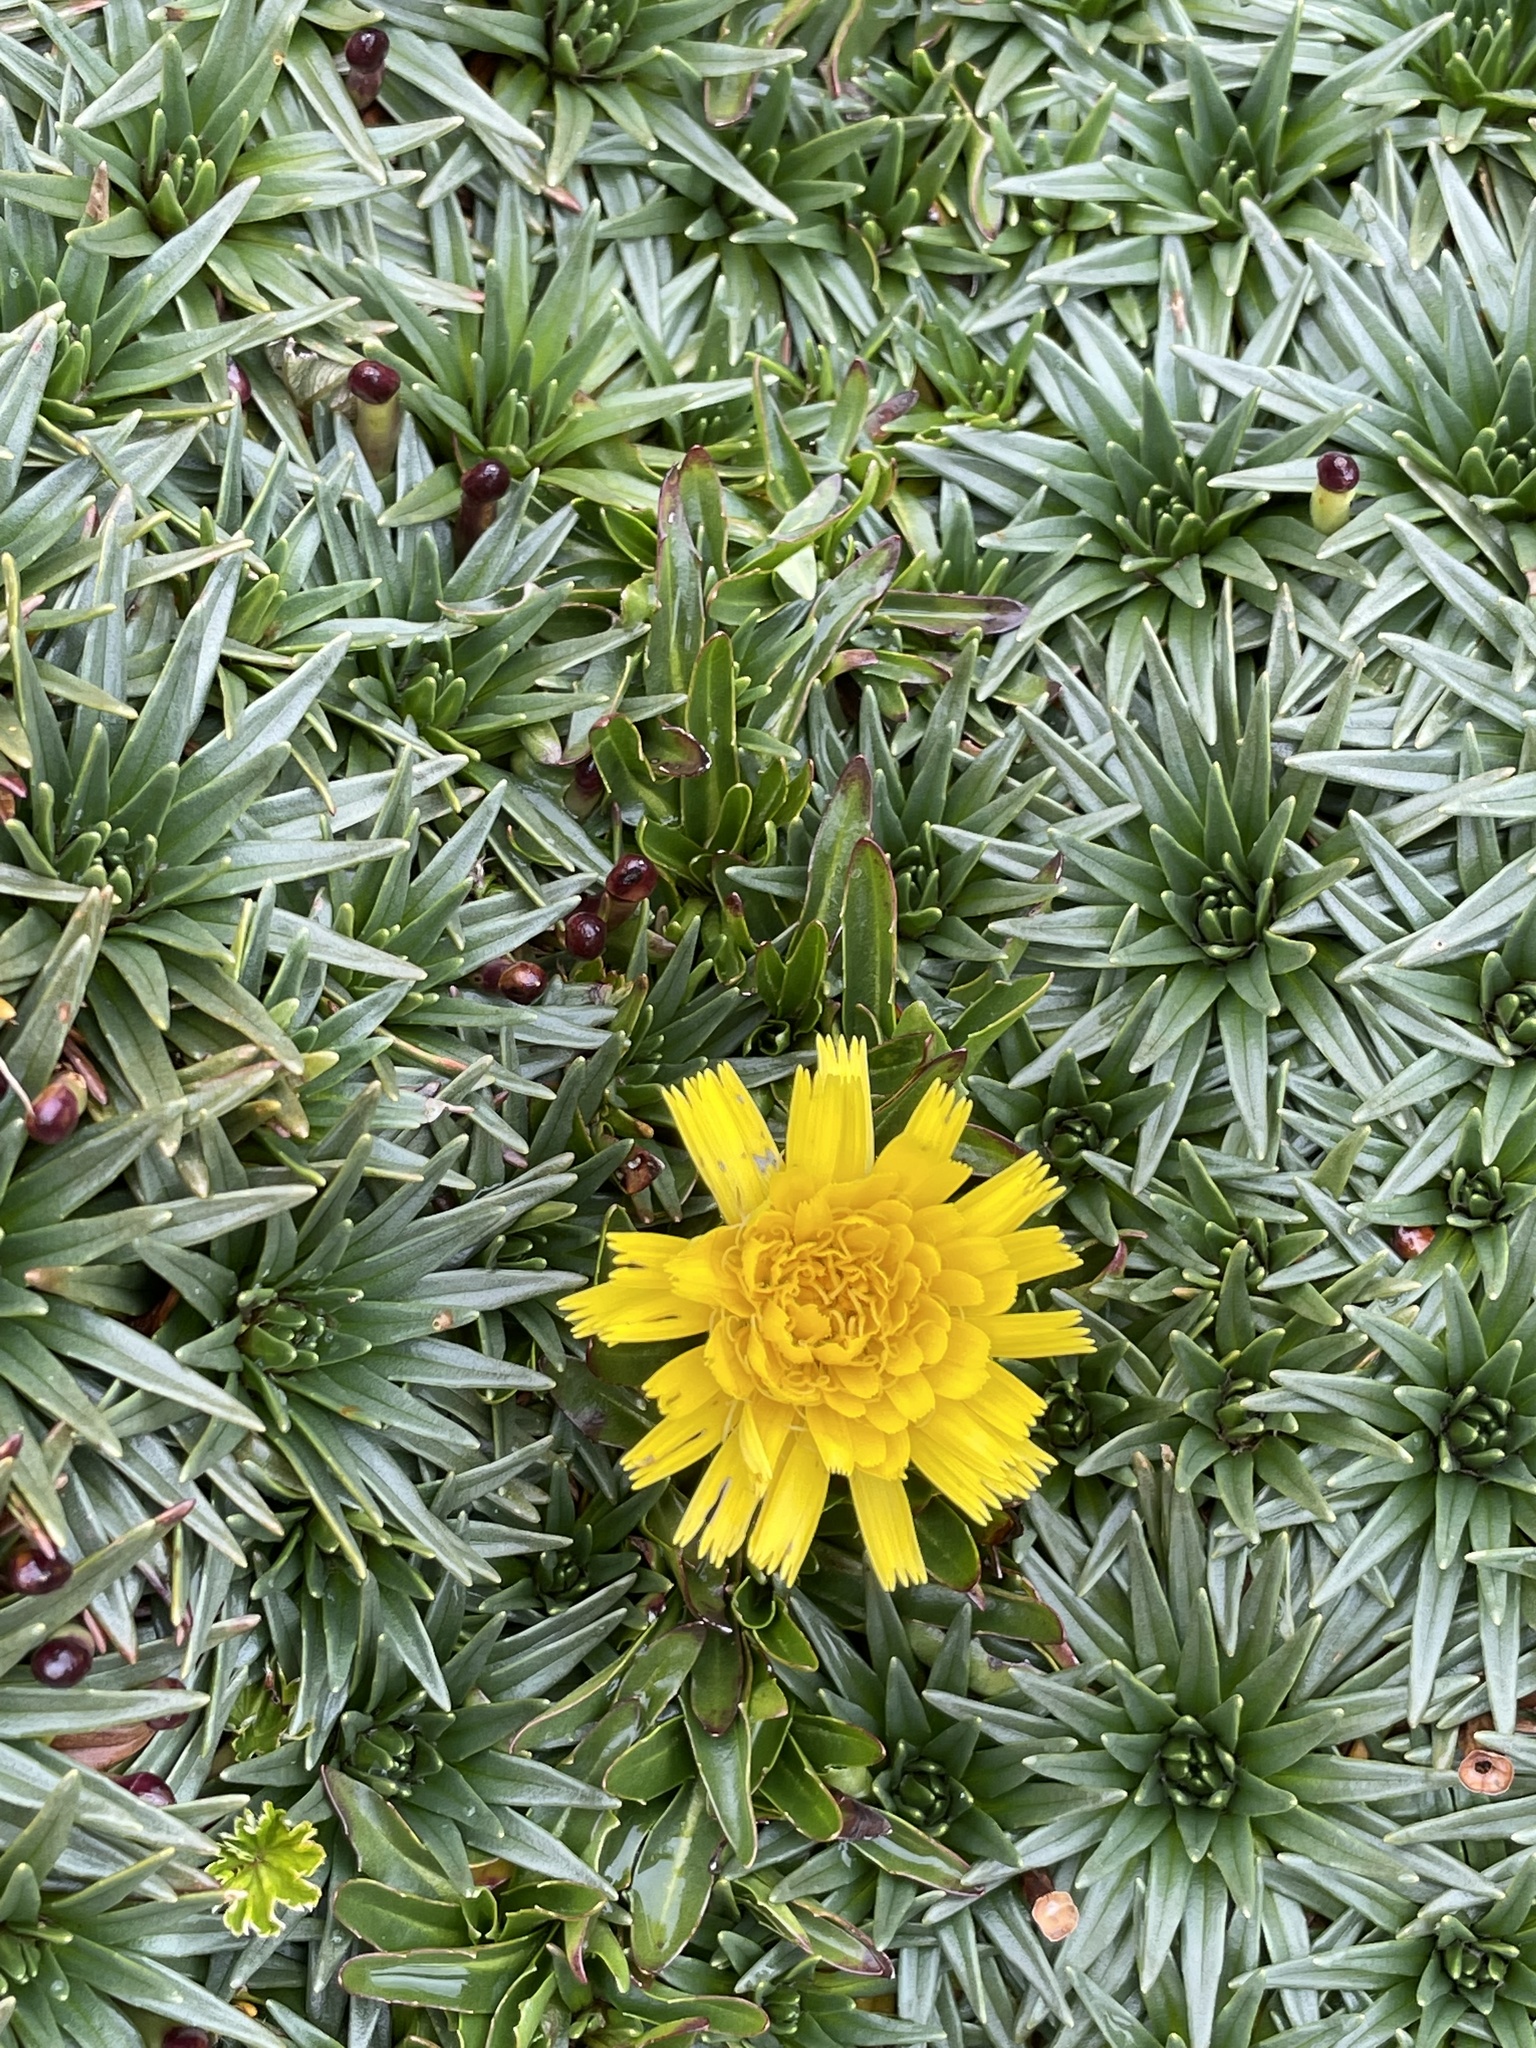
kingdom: Plantae
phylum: Tracheophyta
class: Magnoliopsida
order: Asterales
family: Asteraceae
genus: Hypochaeris
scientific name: Hypochaeris sessiliflora
